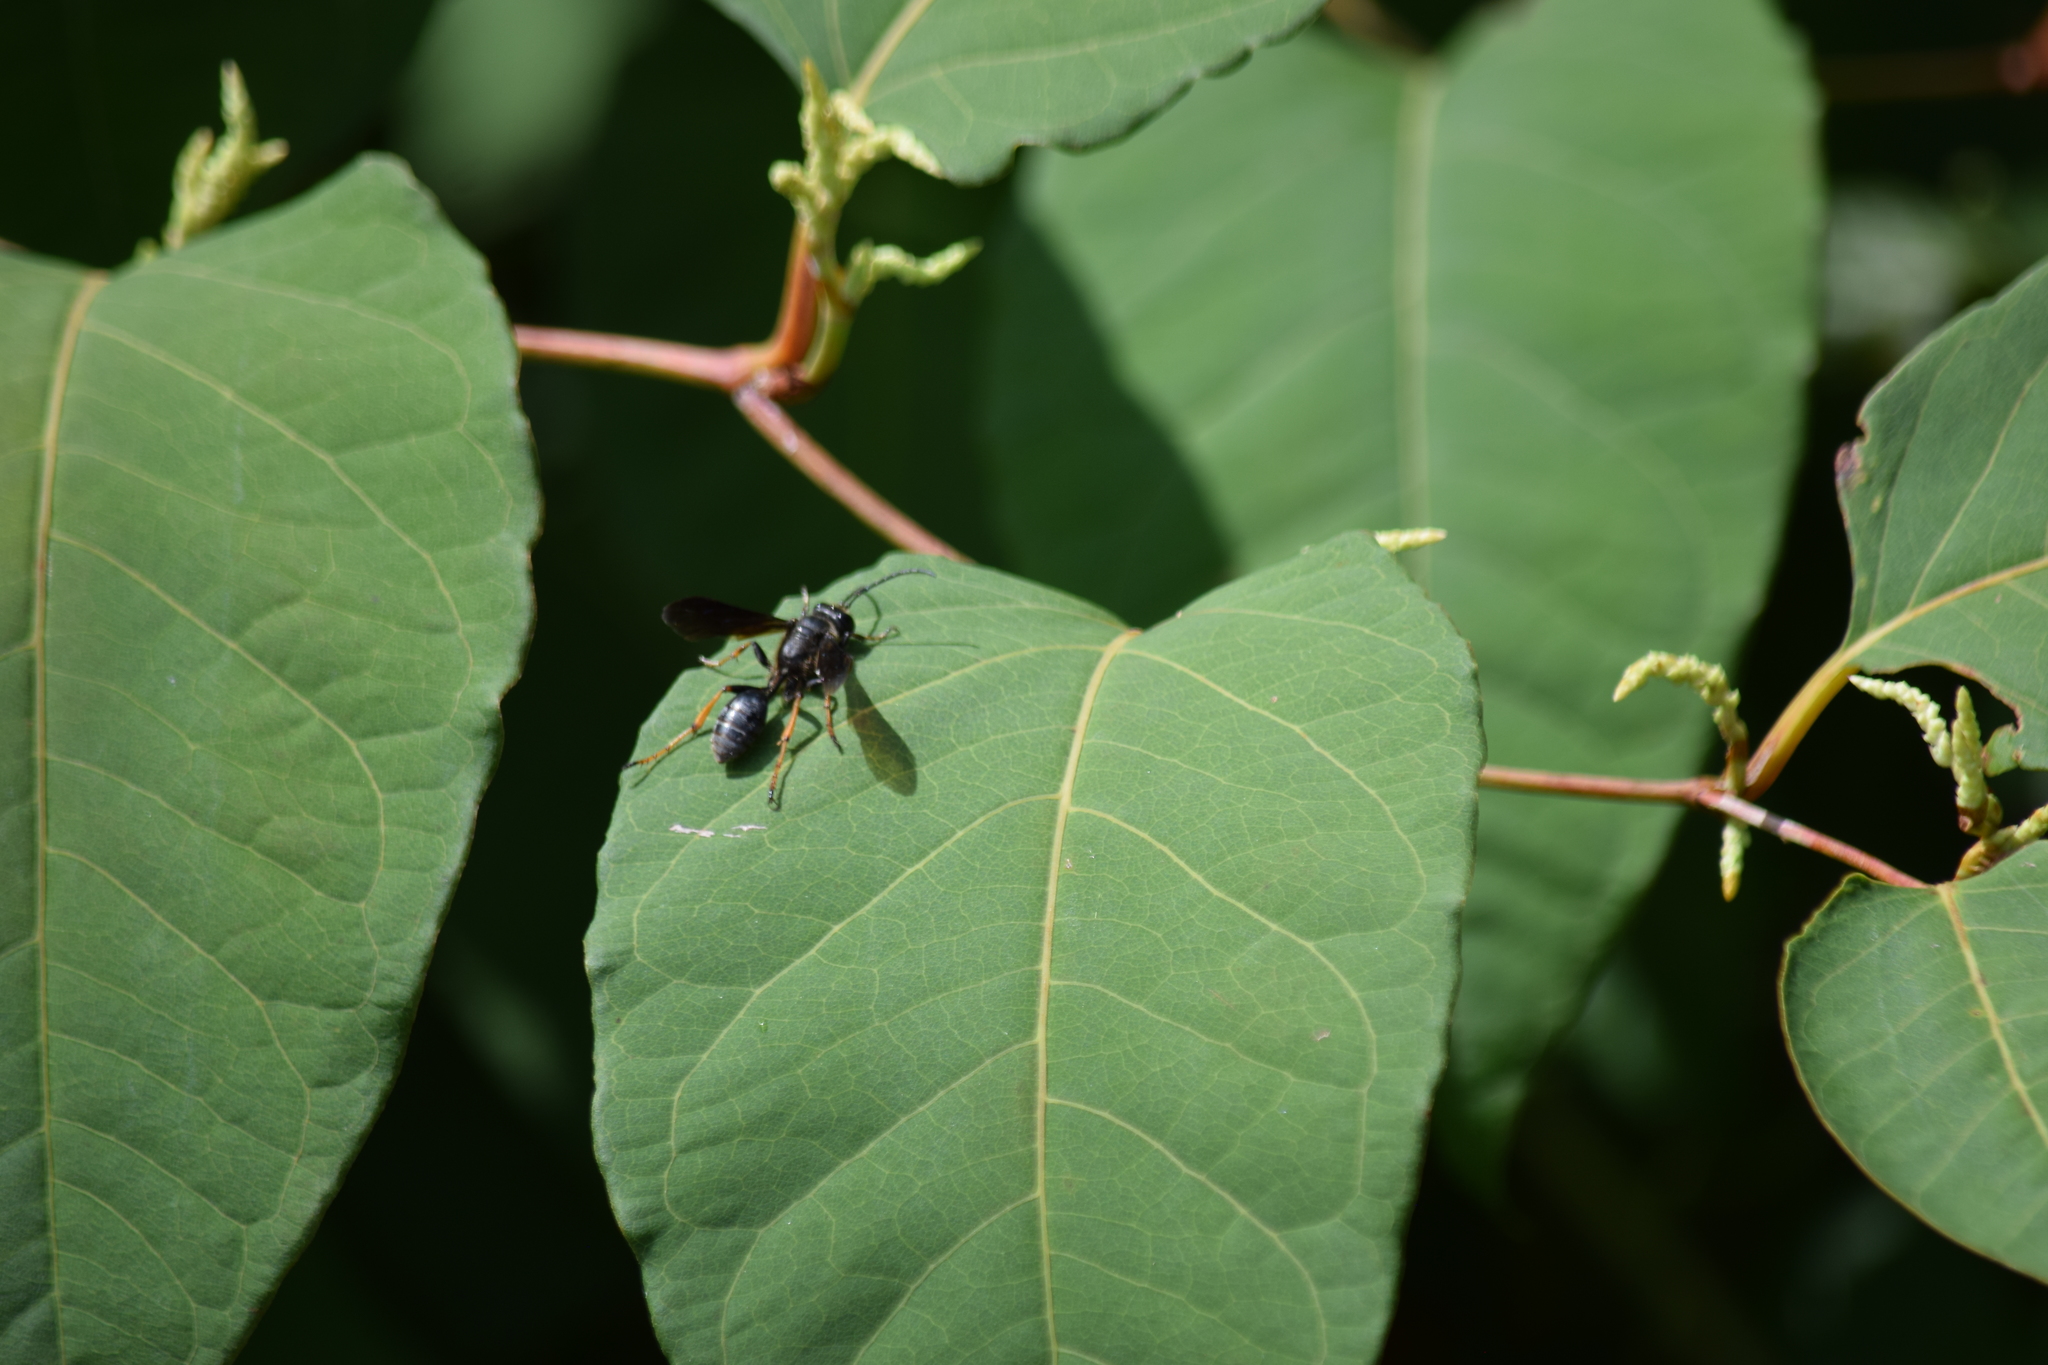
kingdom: Animalia
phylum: Arthropoda
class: Insecta
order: Hymenoptera
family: Sphecidae
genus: Isodontia
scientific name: Isodontia auripes
